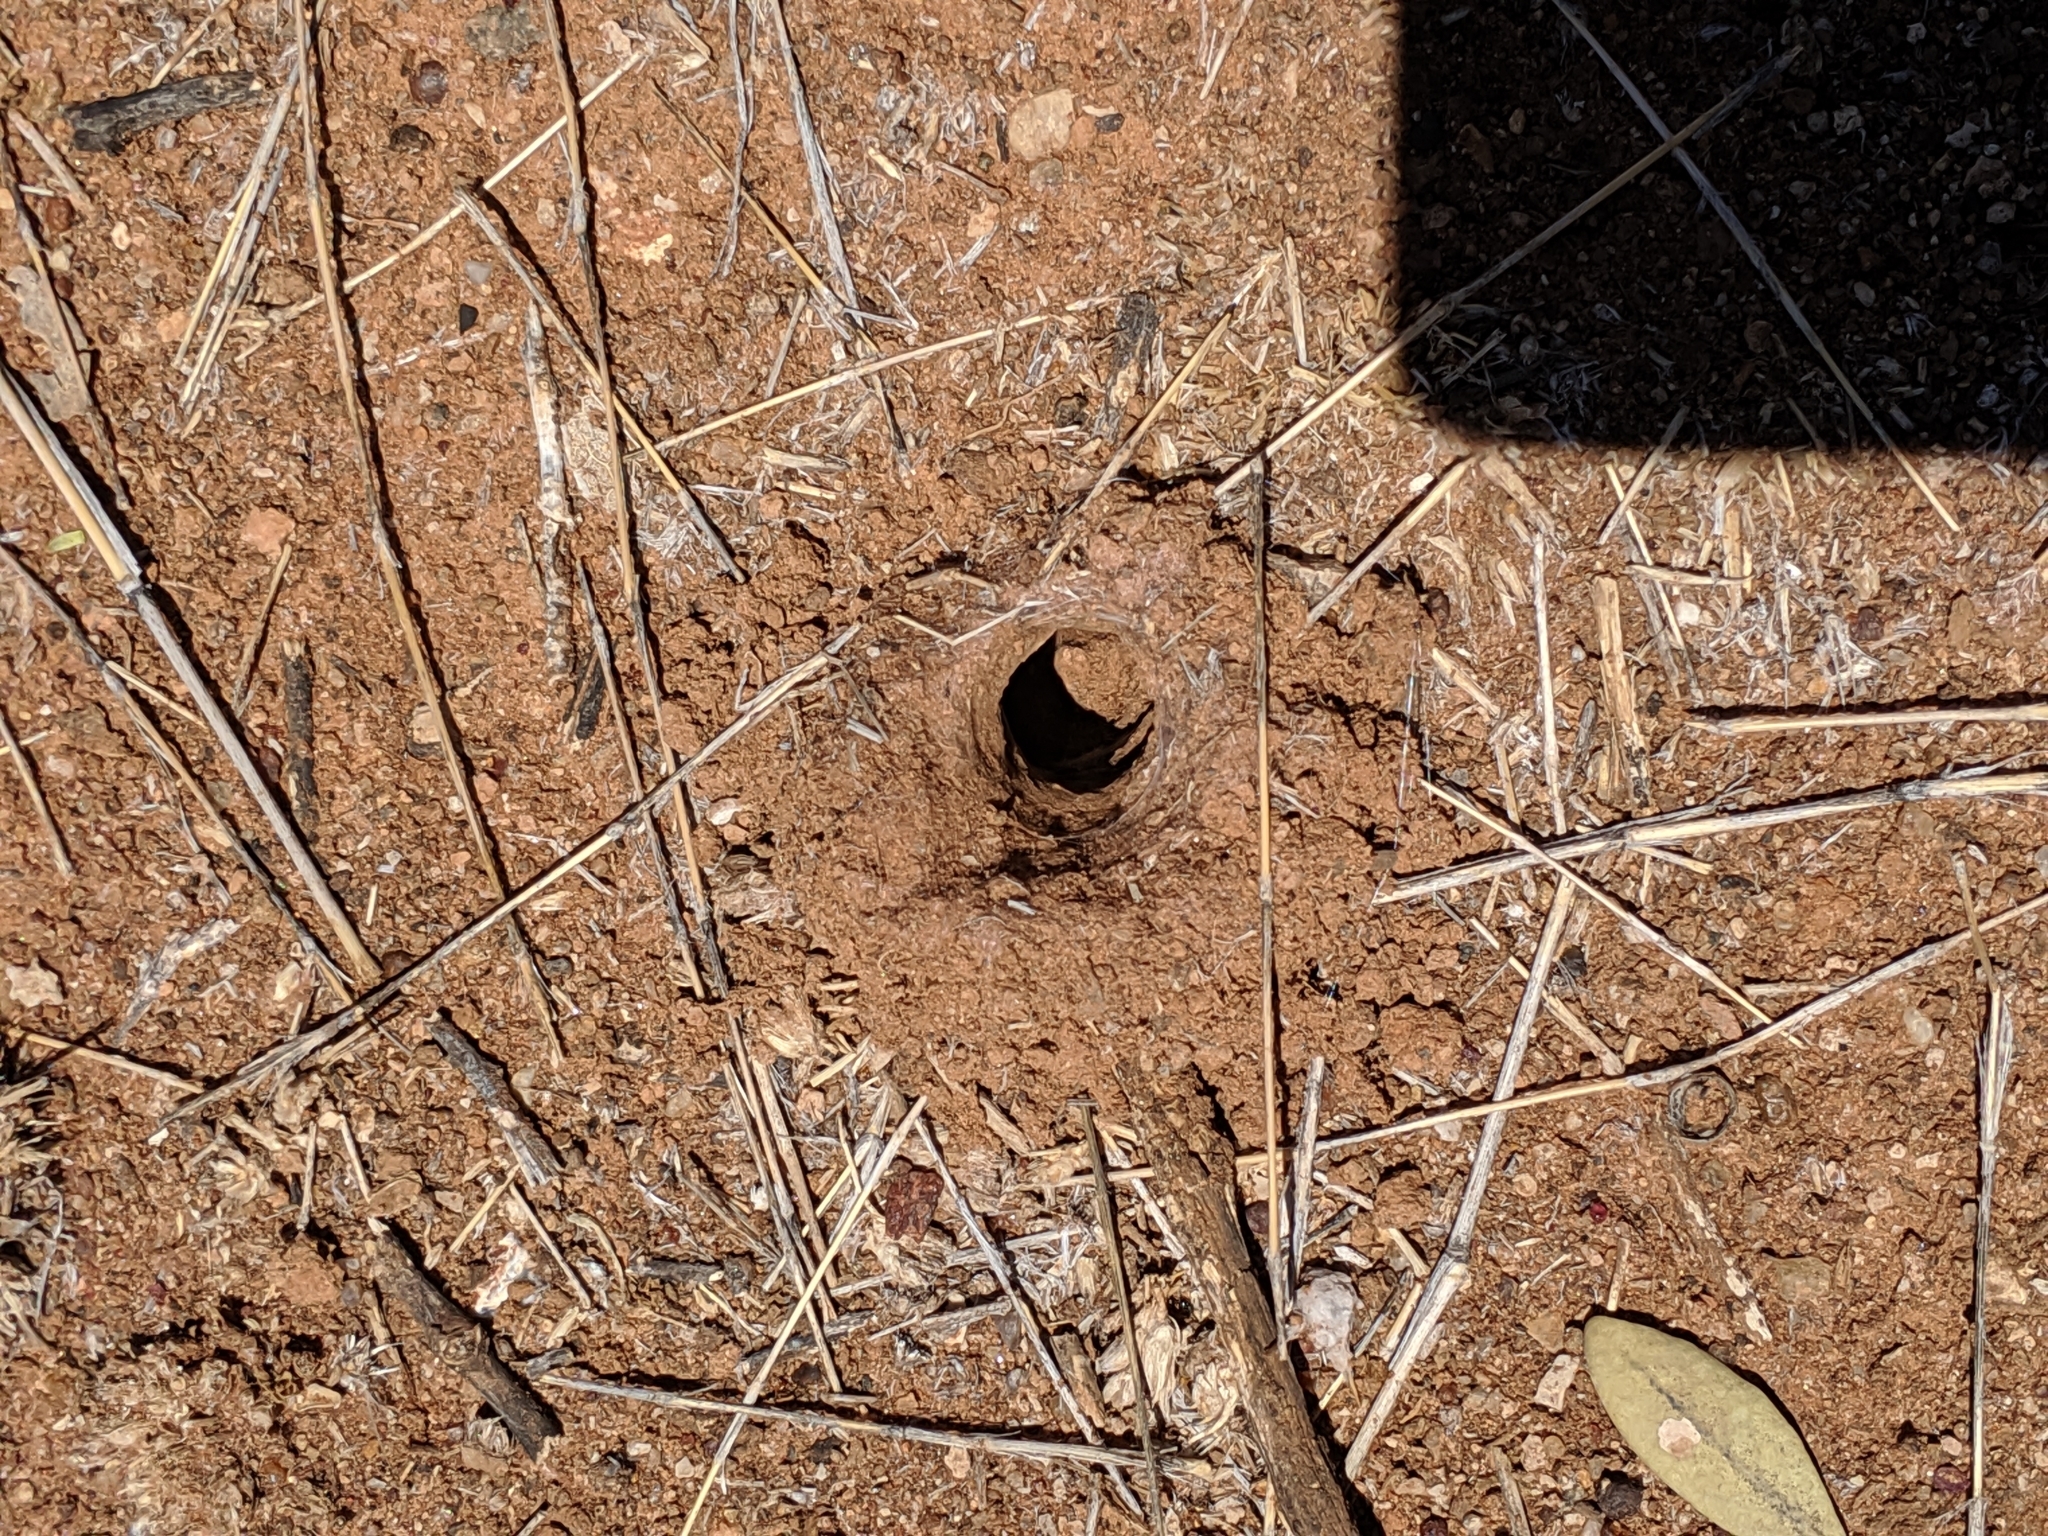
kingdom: Animalia
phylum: Arthropoda
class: Arachnida
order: Araneae
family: Theraphosidae
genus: Selenocosmia
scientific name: Selenocosmia stirlingi
